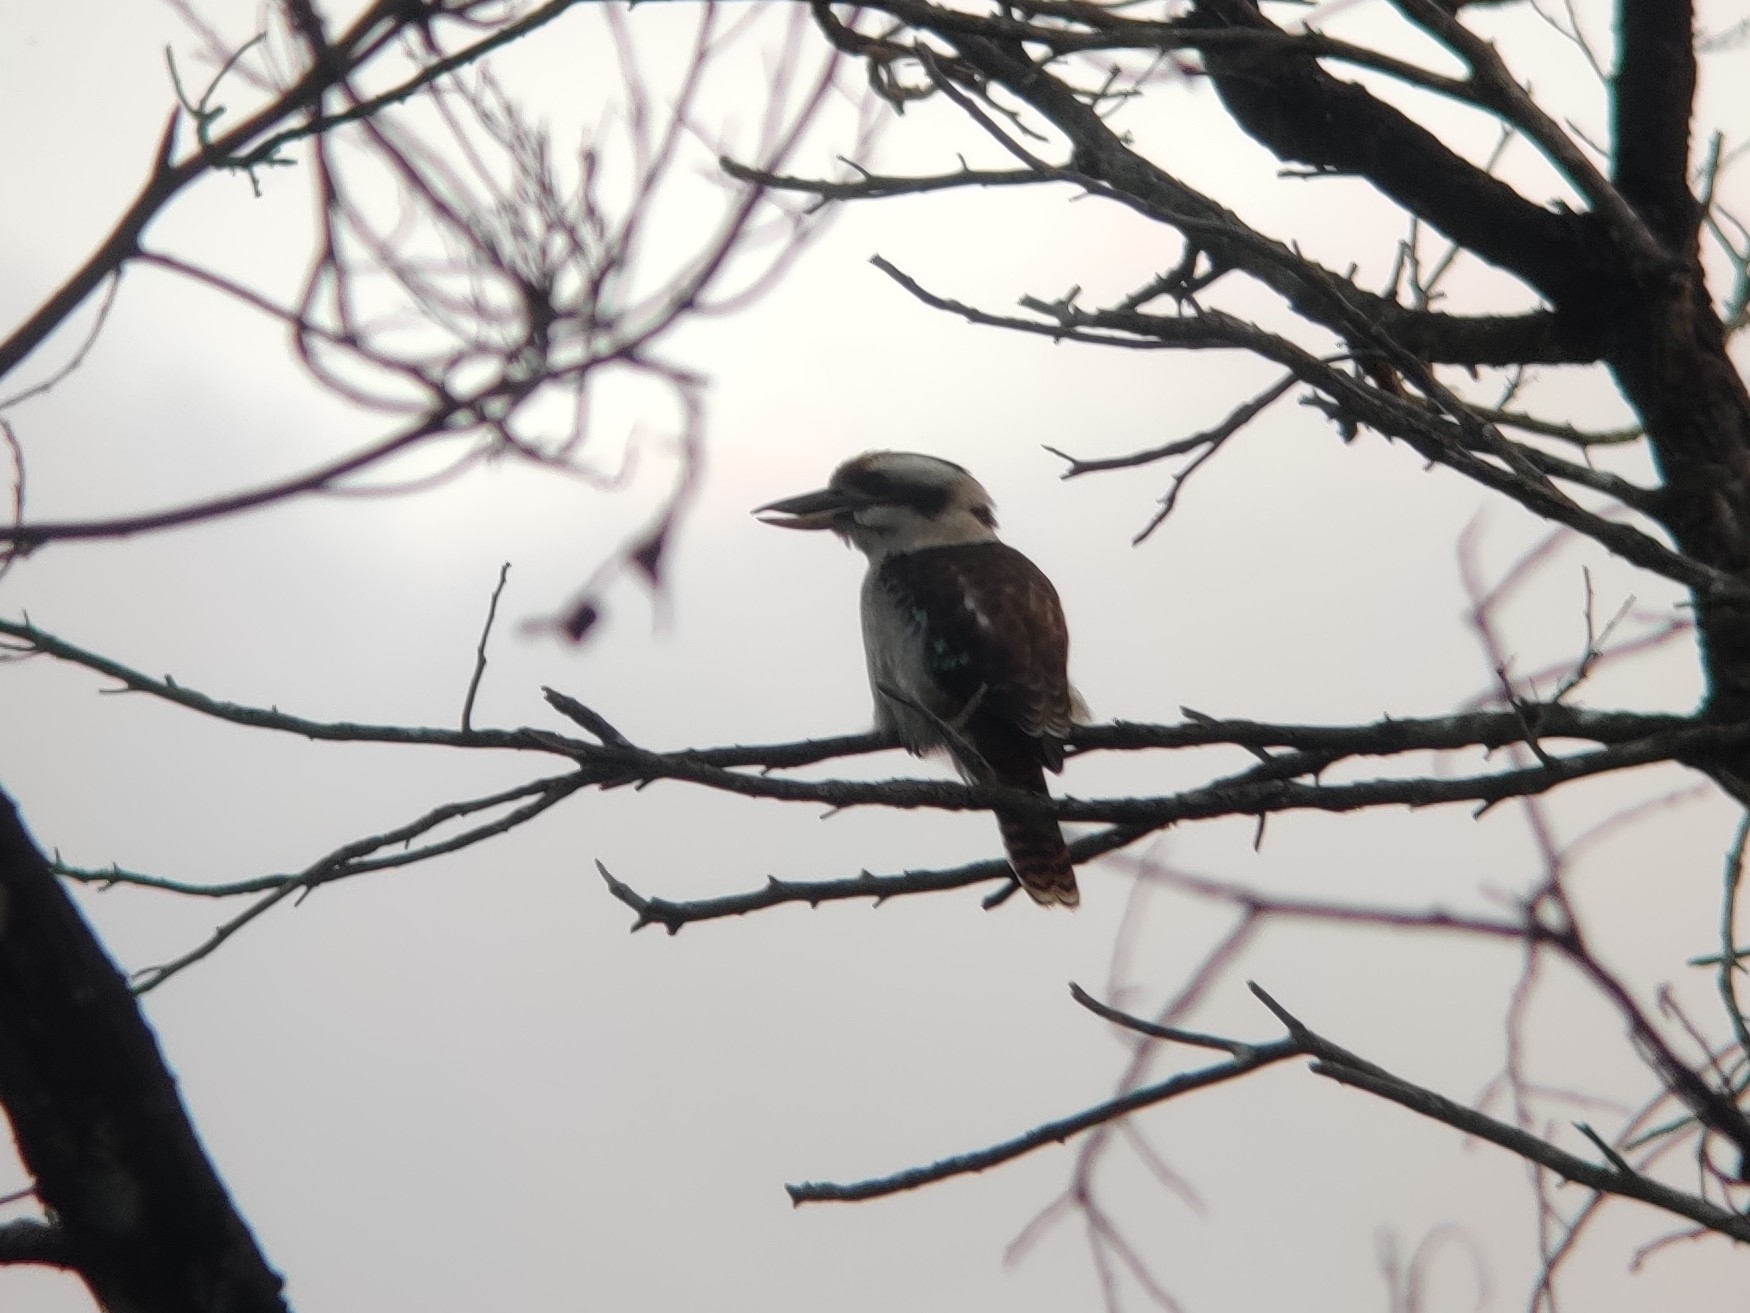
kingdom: Animalia
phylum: Chordata
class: Aves
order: Coraciiformes
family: Alcedinidae
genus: Dacelo
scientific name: Dacelo novaeguineae
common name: Laughing kookaburra
